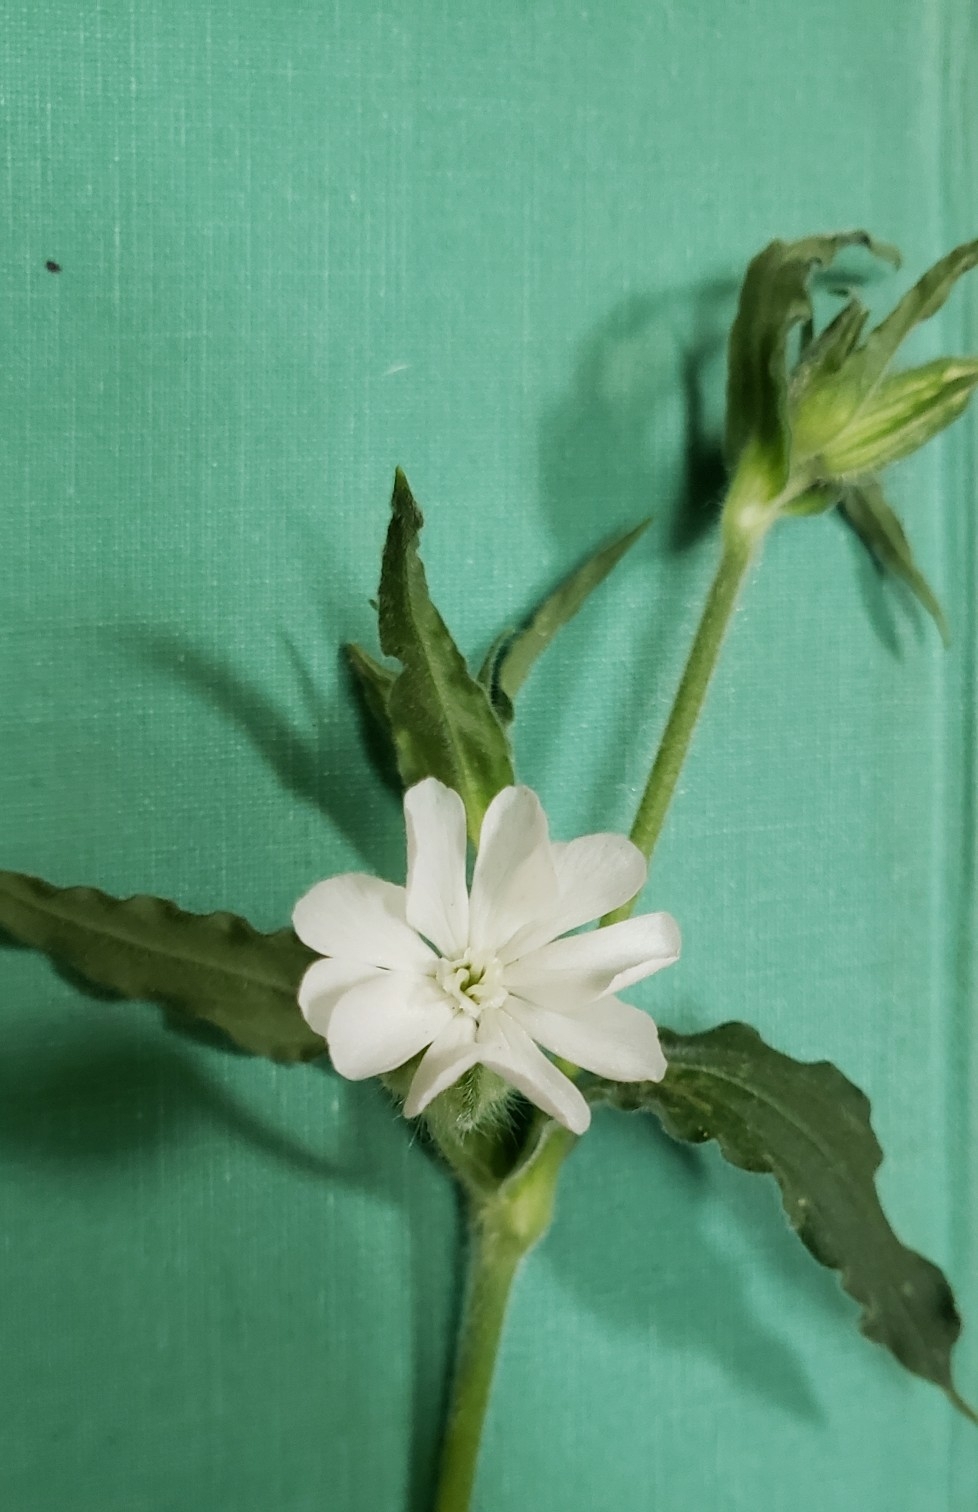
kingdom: Plantae
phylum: Tracheophyta
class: Magnoliopsida
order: Caryophyllales
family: Caryophyllaceae
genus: Silene
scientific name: Silene latifolia
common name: White campion
